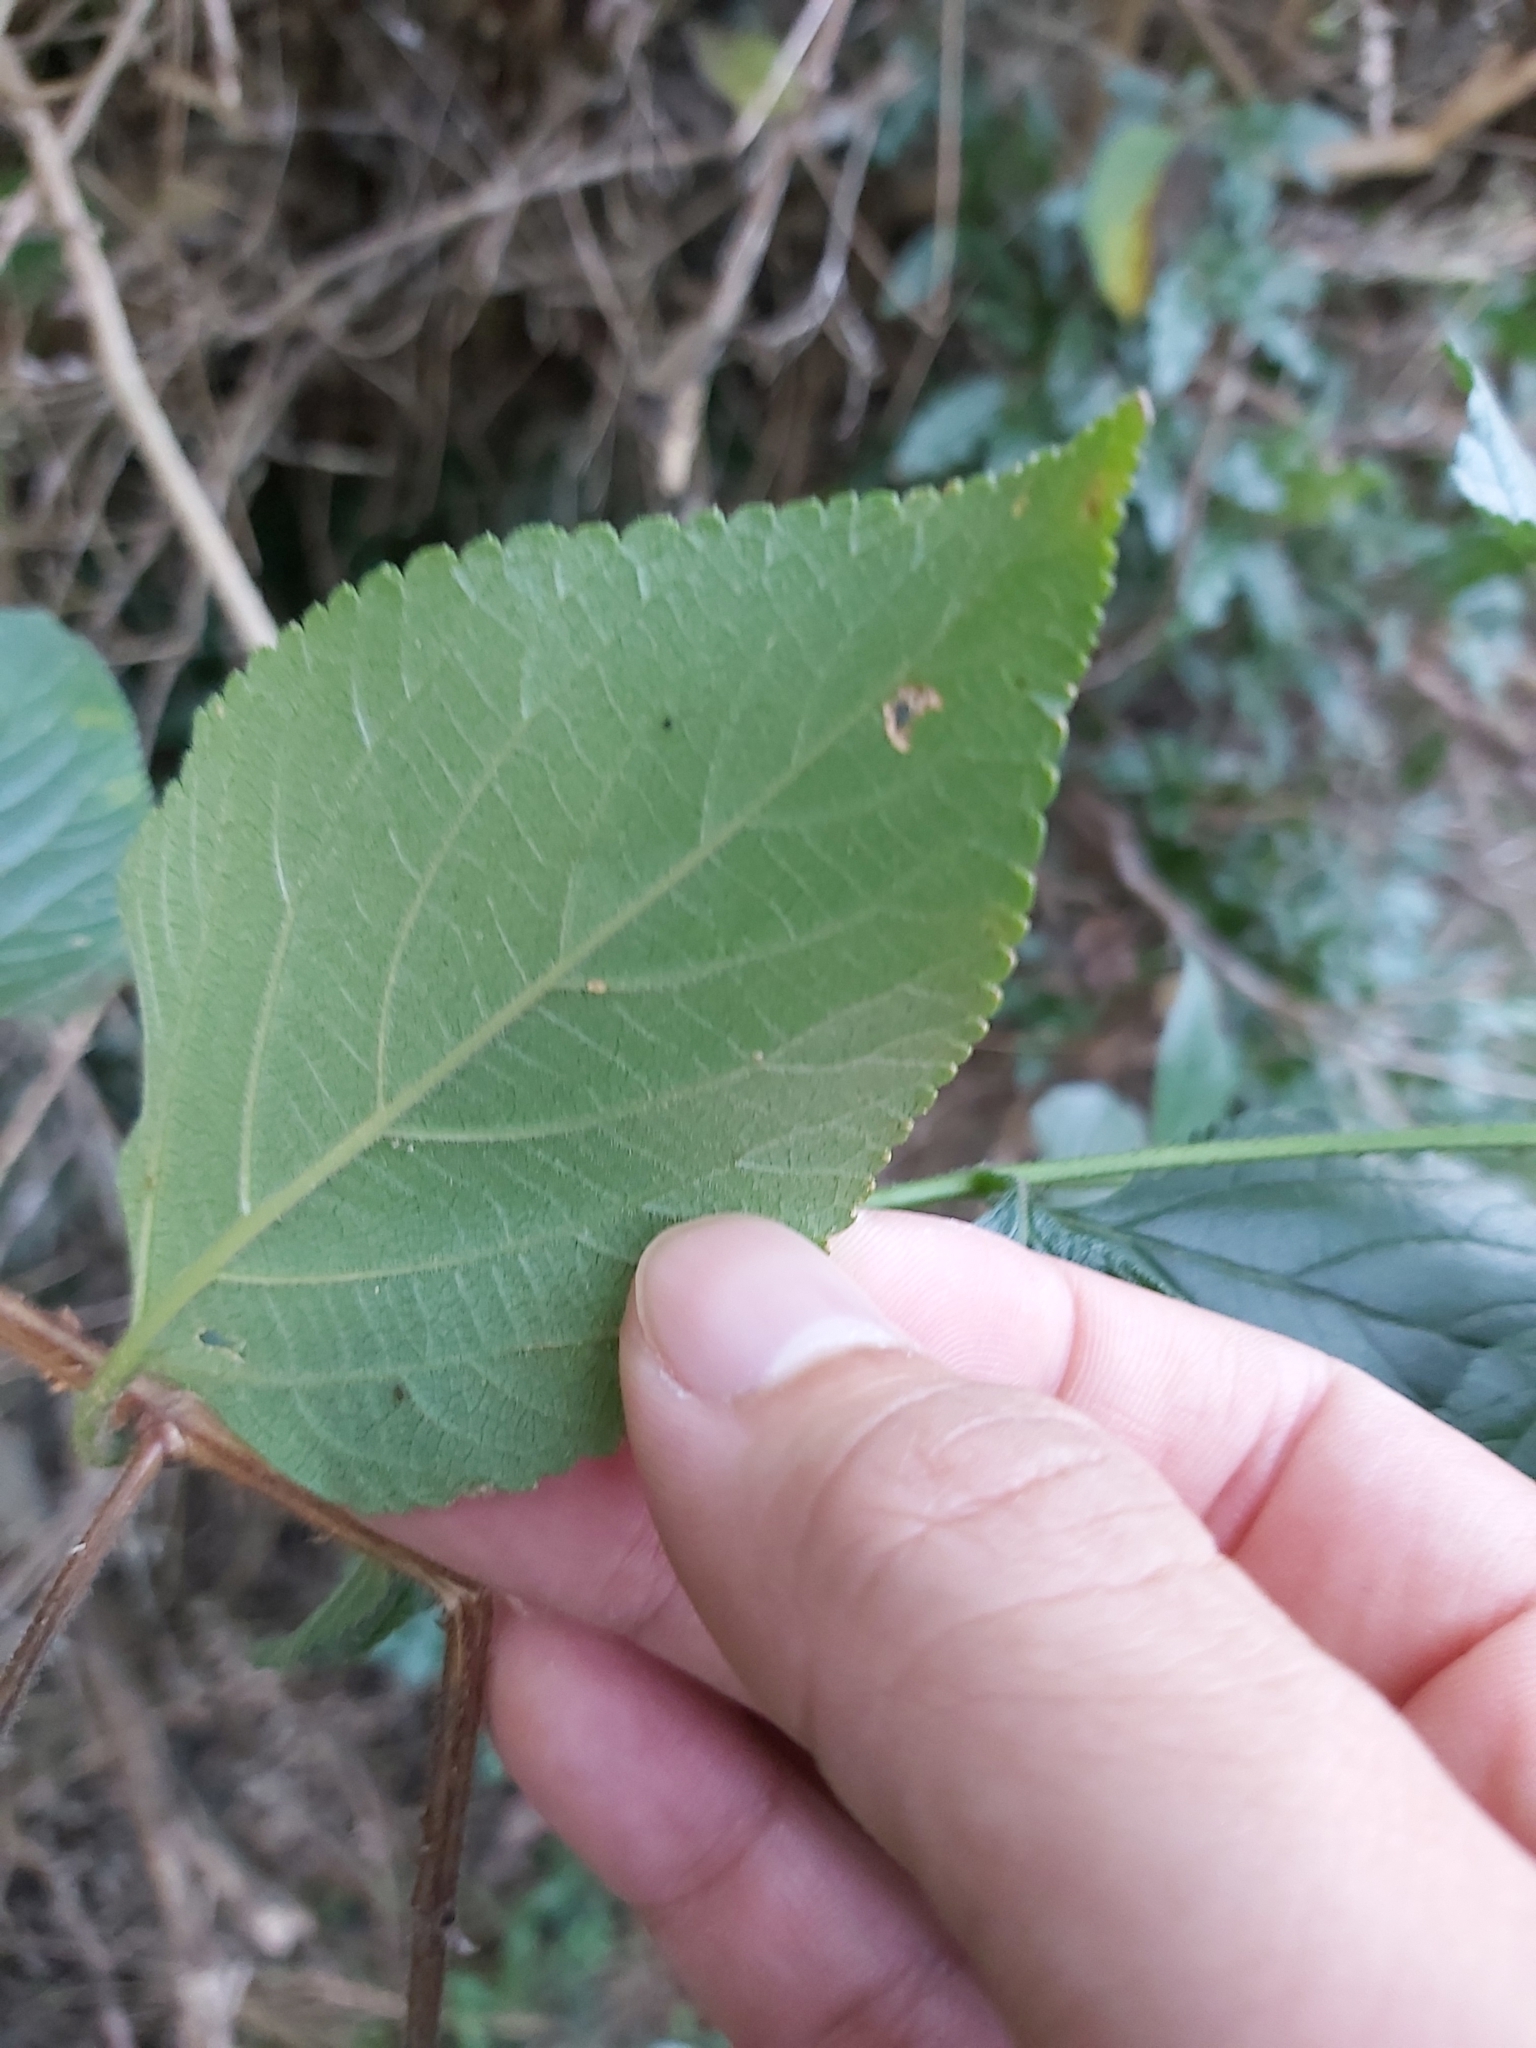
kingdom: Plantae
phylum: Tracheophyta
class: Magnoliopsida
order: Lamiales
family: Verbenaceae
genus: Lantana
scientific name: Lantana camara
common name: Lantana
